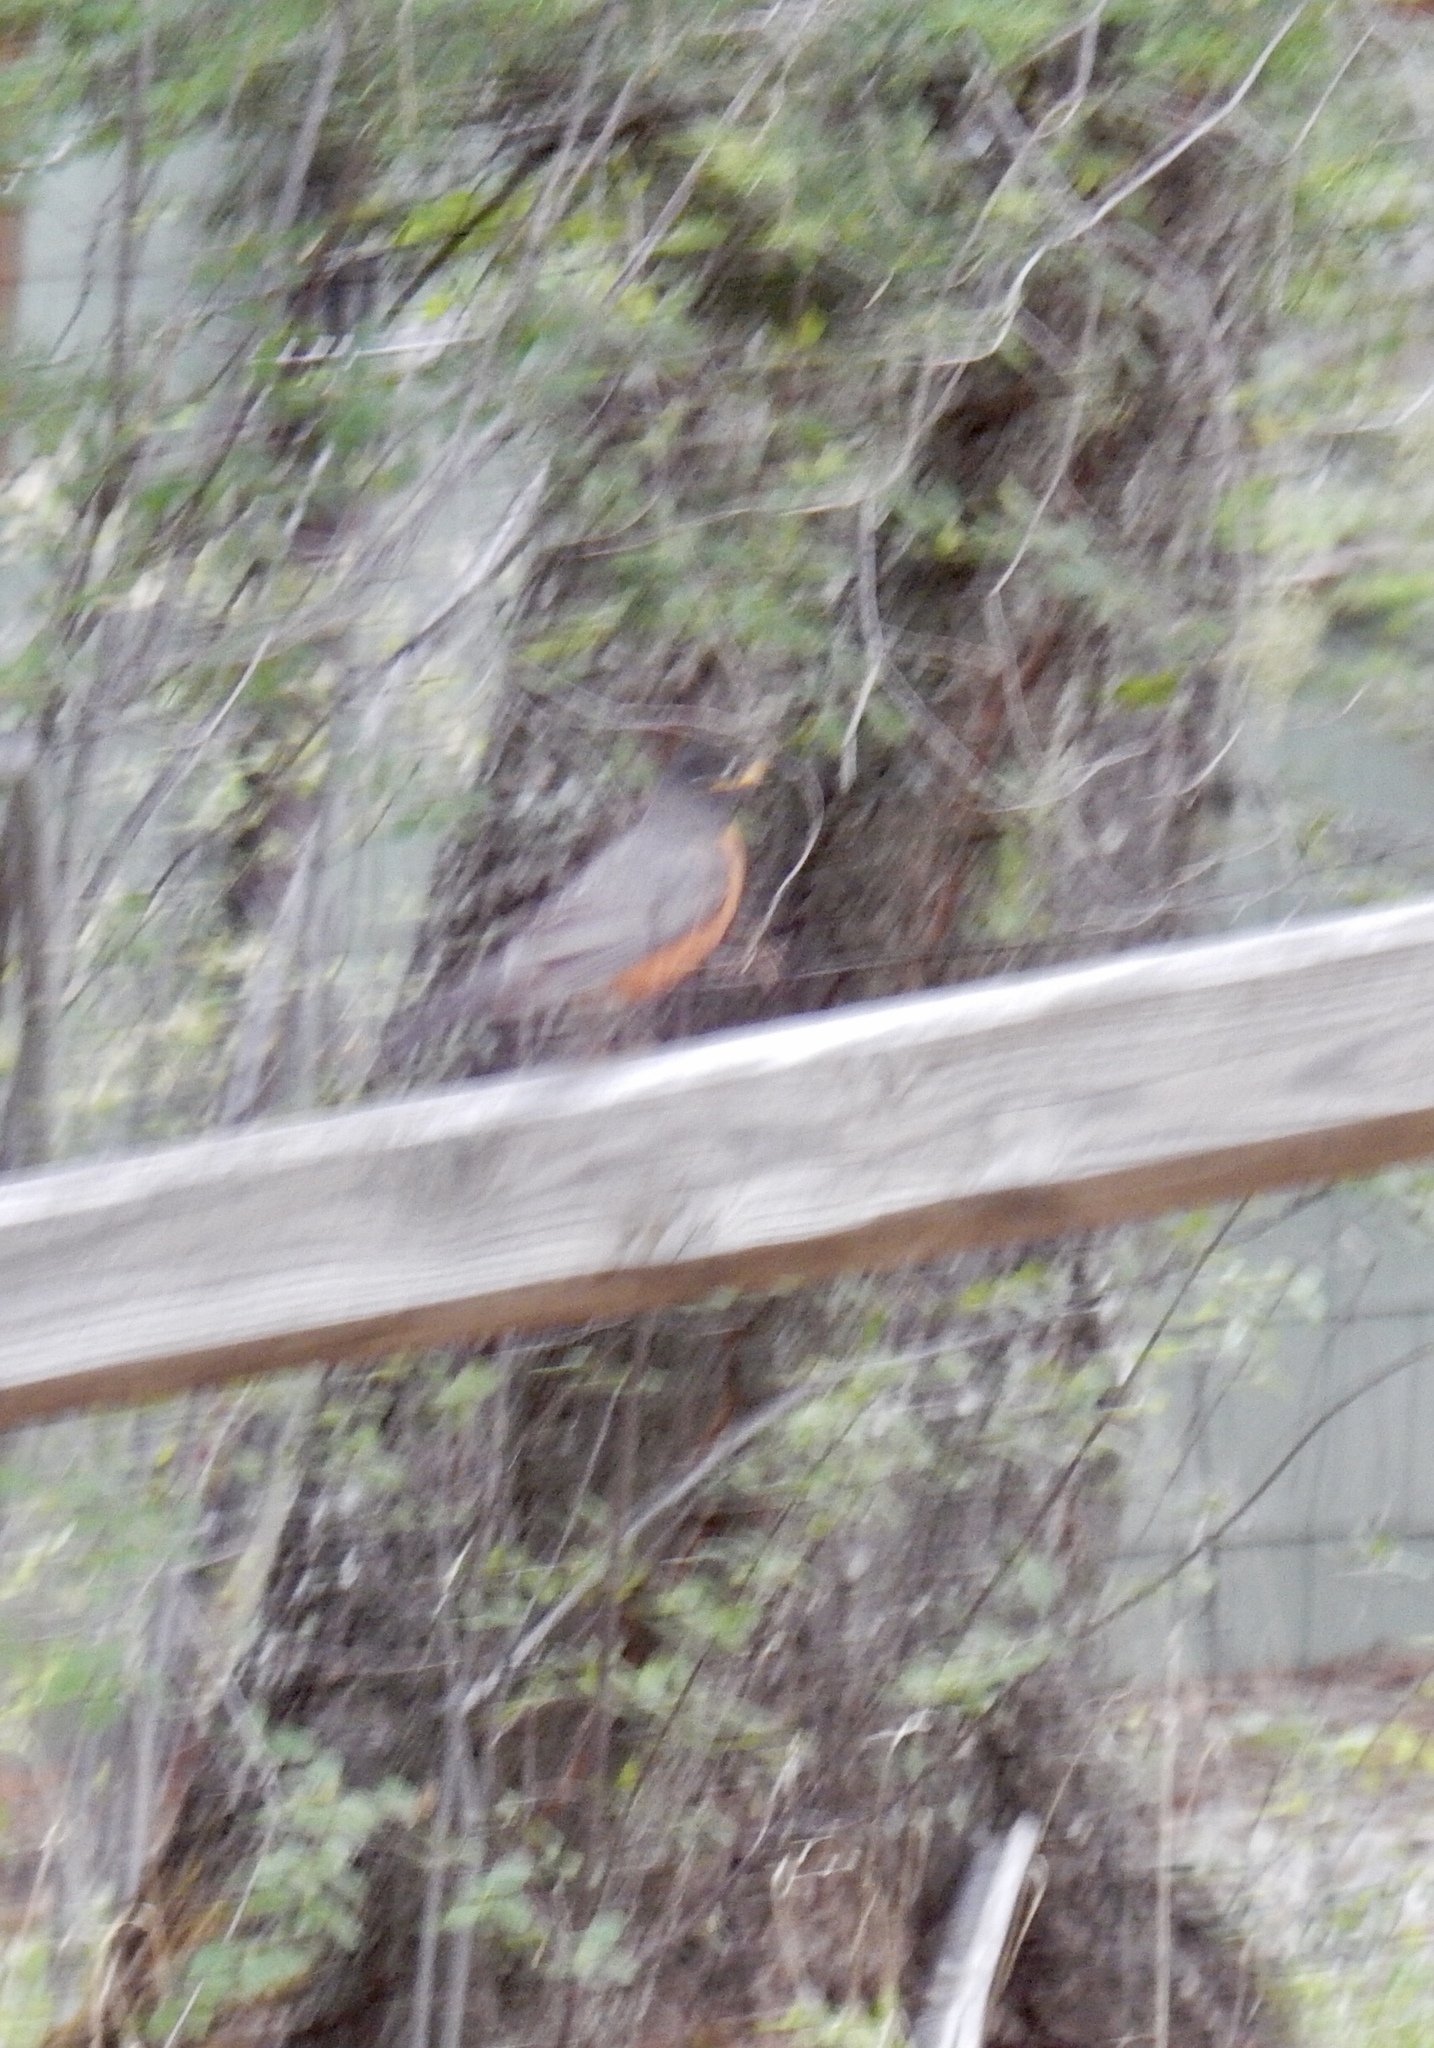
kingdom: Animalia
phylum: Chordata
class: Aves
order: Passeriformes
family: Turdidae
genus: Turdus
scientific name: Turdus migratorius
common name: American robin
